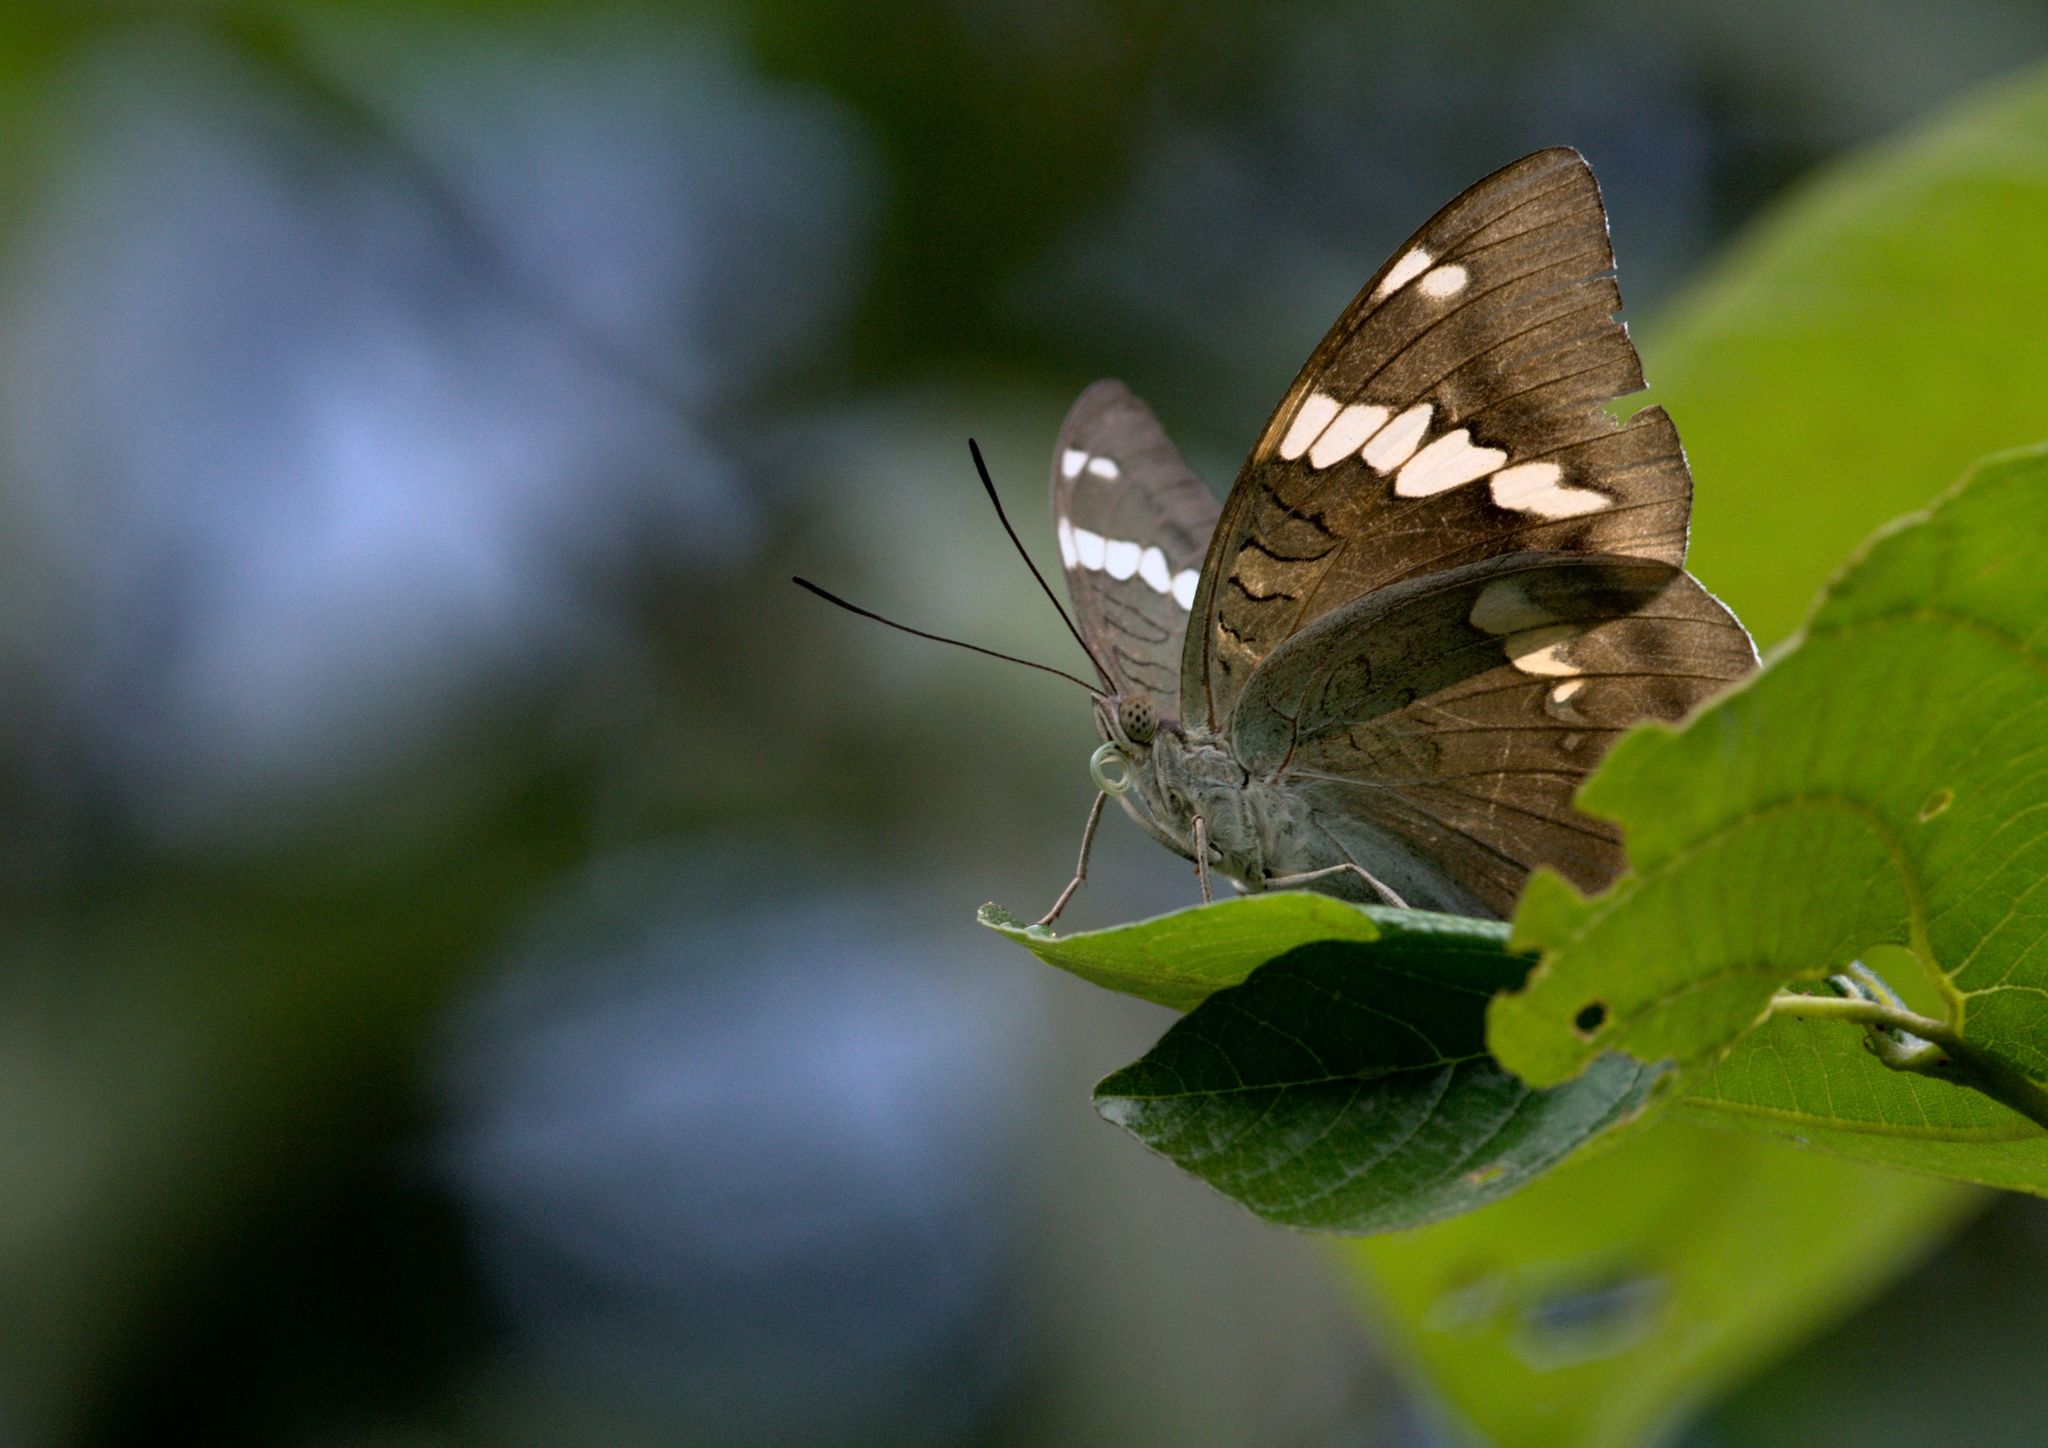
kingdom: Animalia
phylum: Arthropoda
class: Insecta
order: Lepidoptera
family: Nymphalidae
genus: Euthalia
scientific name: Euthalia patala
